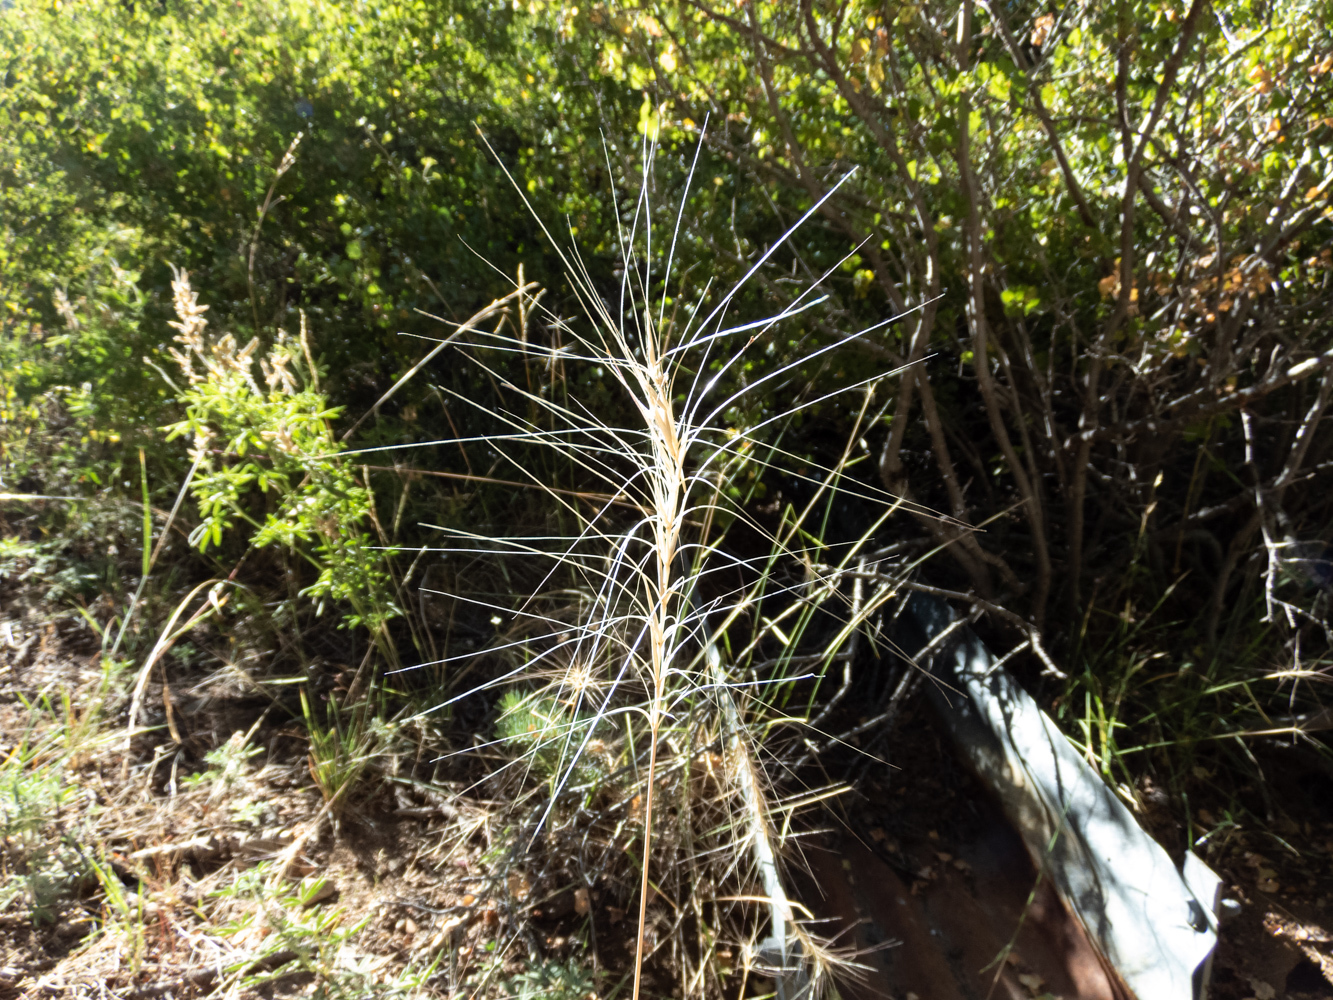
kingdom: Plantae
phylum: Tracheophyta
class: Liliopsida
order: Poales
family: Poaceae
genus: Elymus
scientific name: Elymus elymoides
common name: Bottlebrush squirreltail
